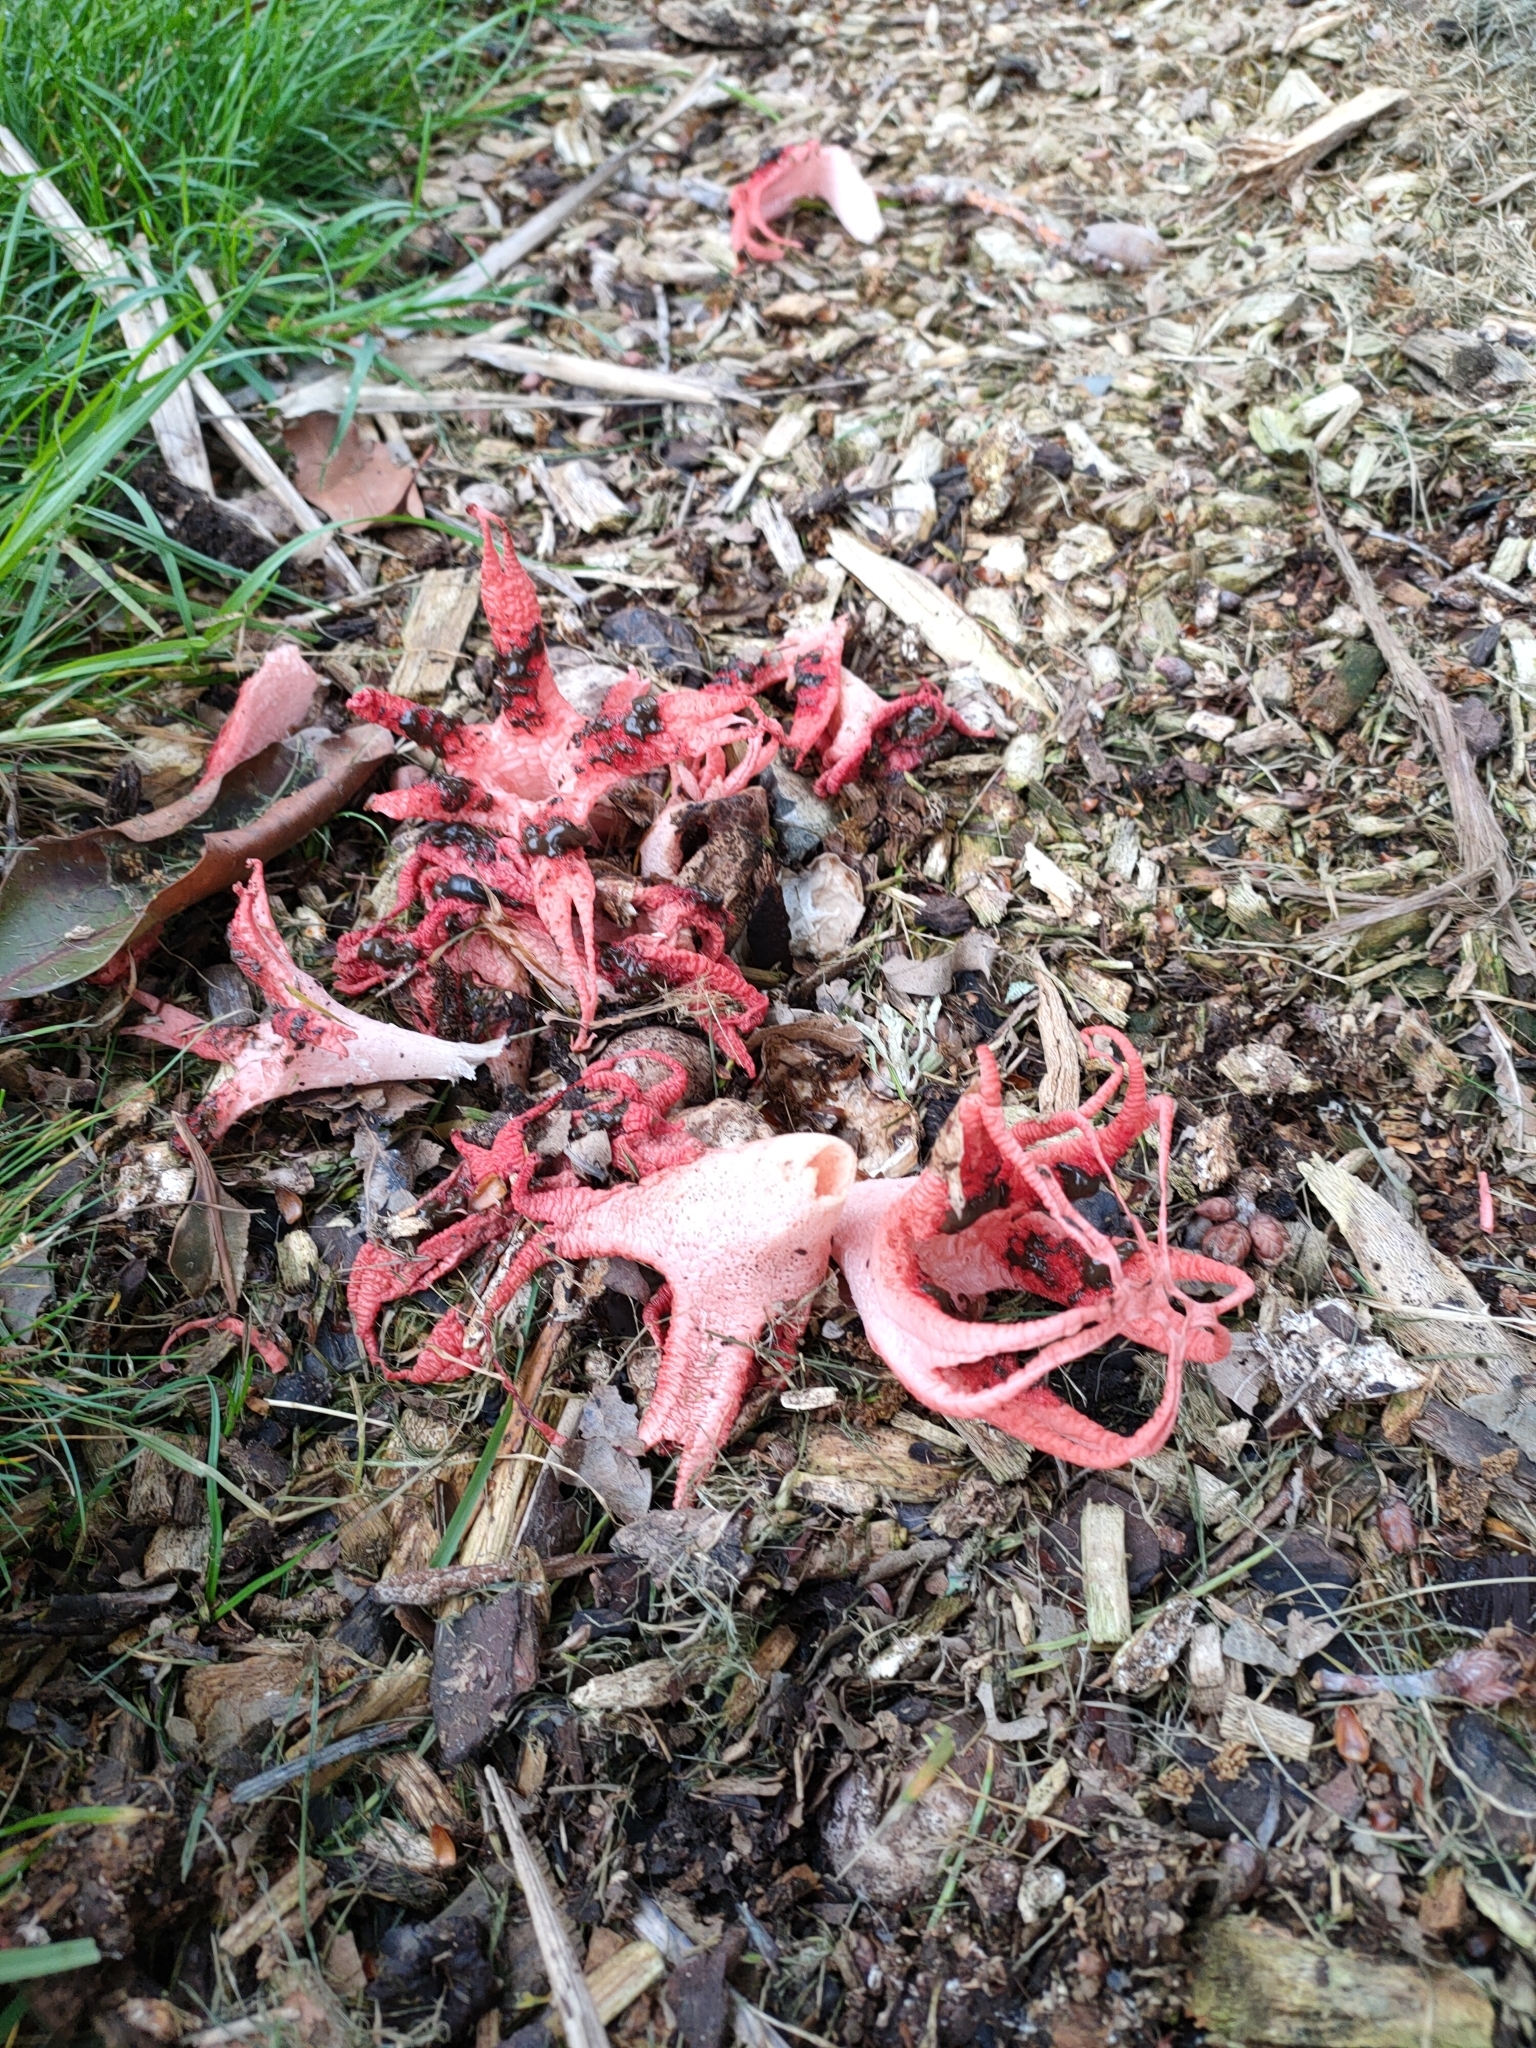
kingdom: Fungi
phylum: Basidiomycota
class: Agaricomycetes
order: Phallales
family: Phallaceae
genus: Clathrus
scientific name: Clathrus archeri
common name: Devil's fingers
